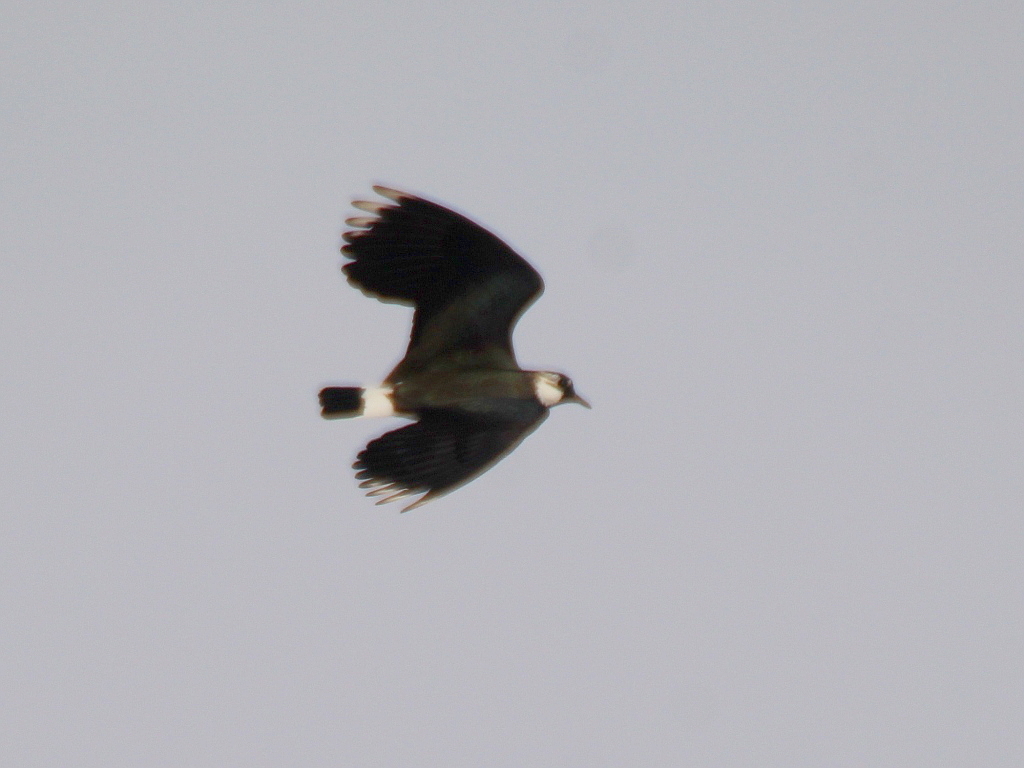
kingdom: Animalia
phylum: Chordata
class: Aves
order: Charadriiformes
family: Charadriidae
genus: Vanellus
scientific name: Vanellus vanellus
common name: Northern lapwing
